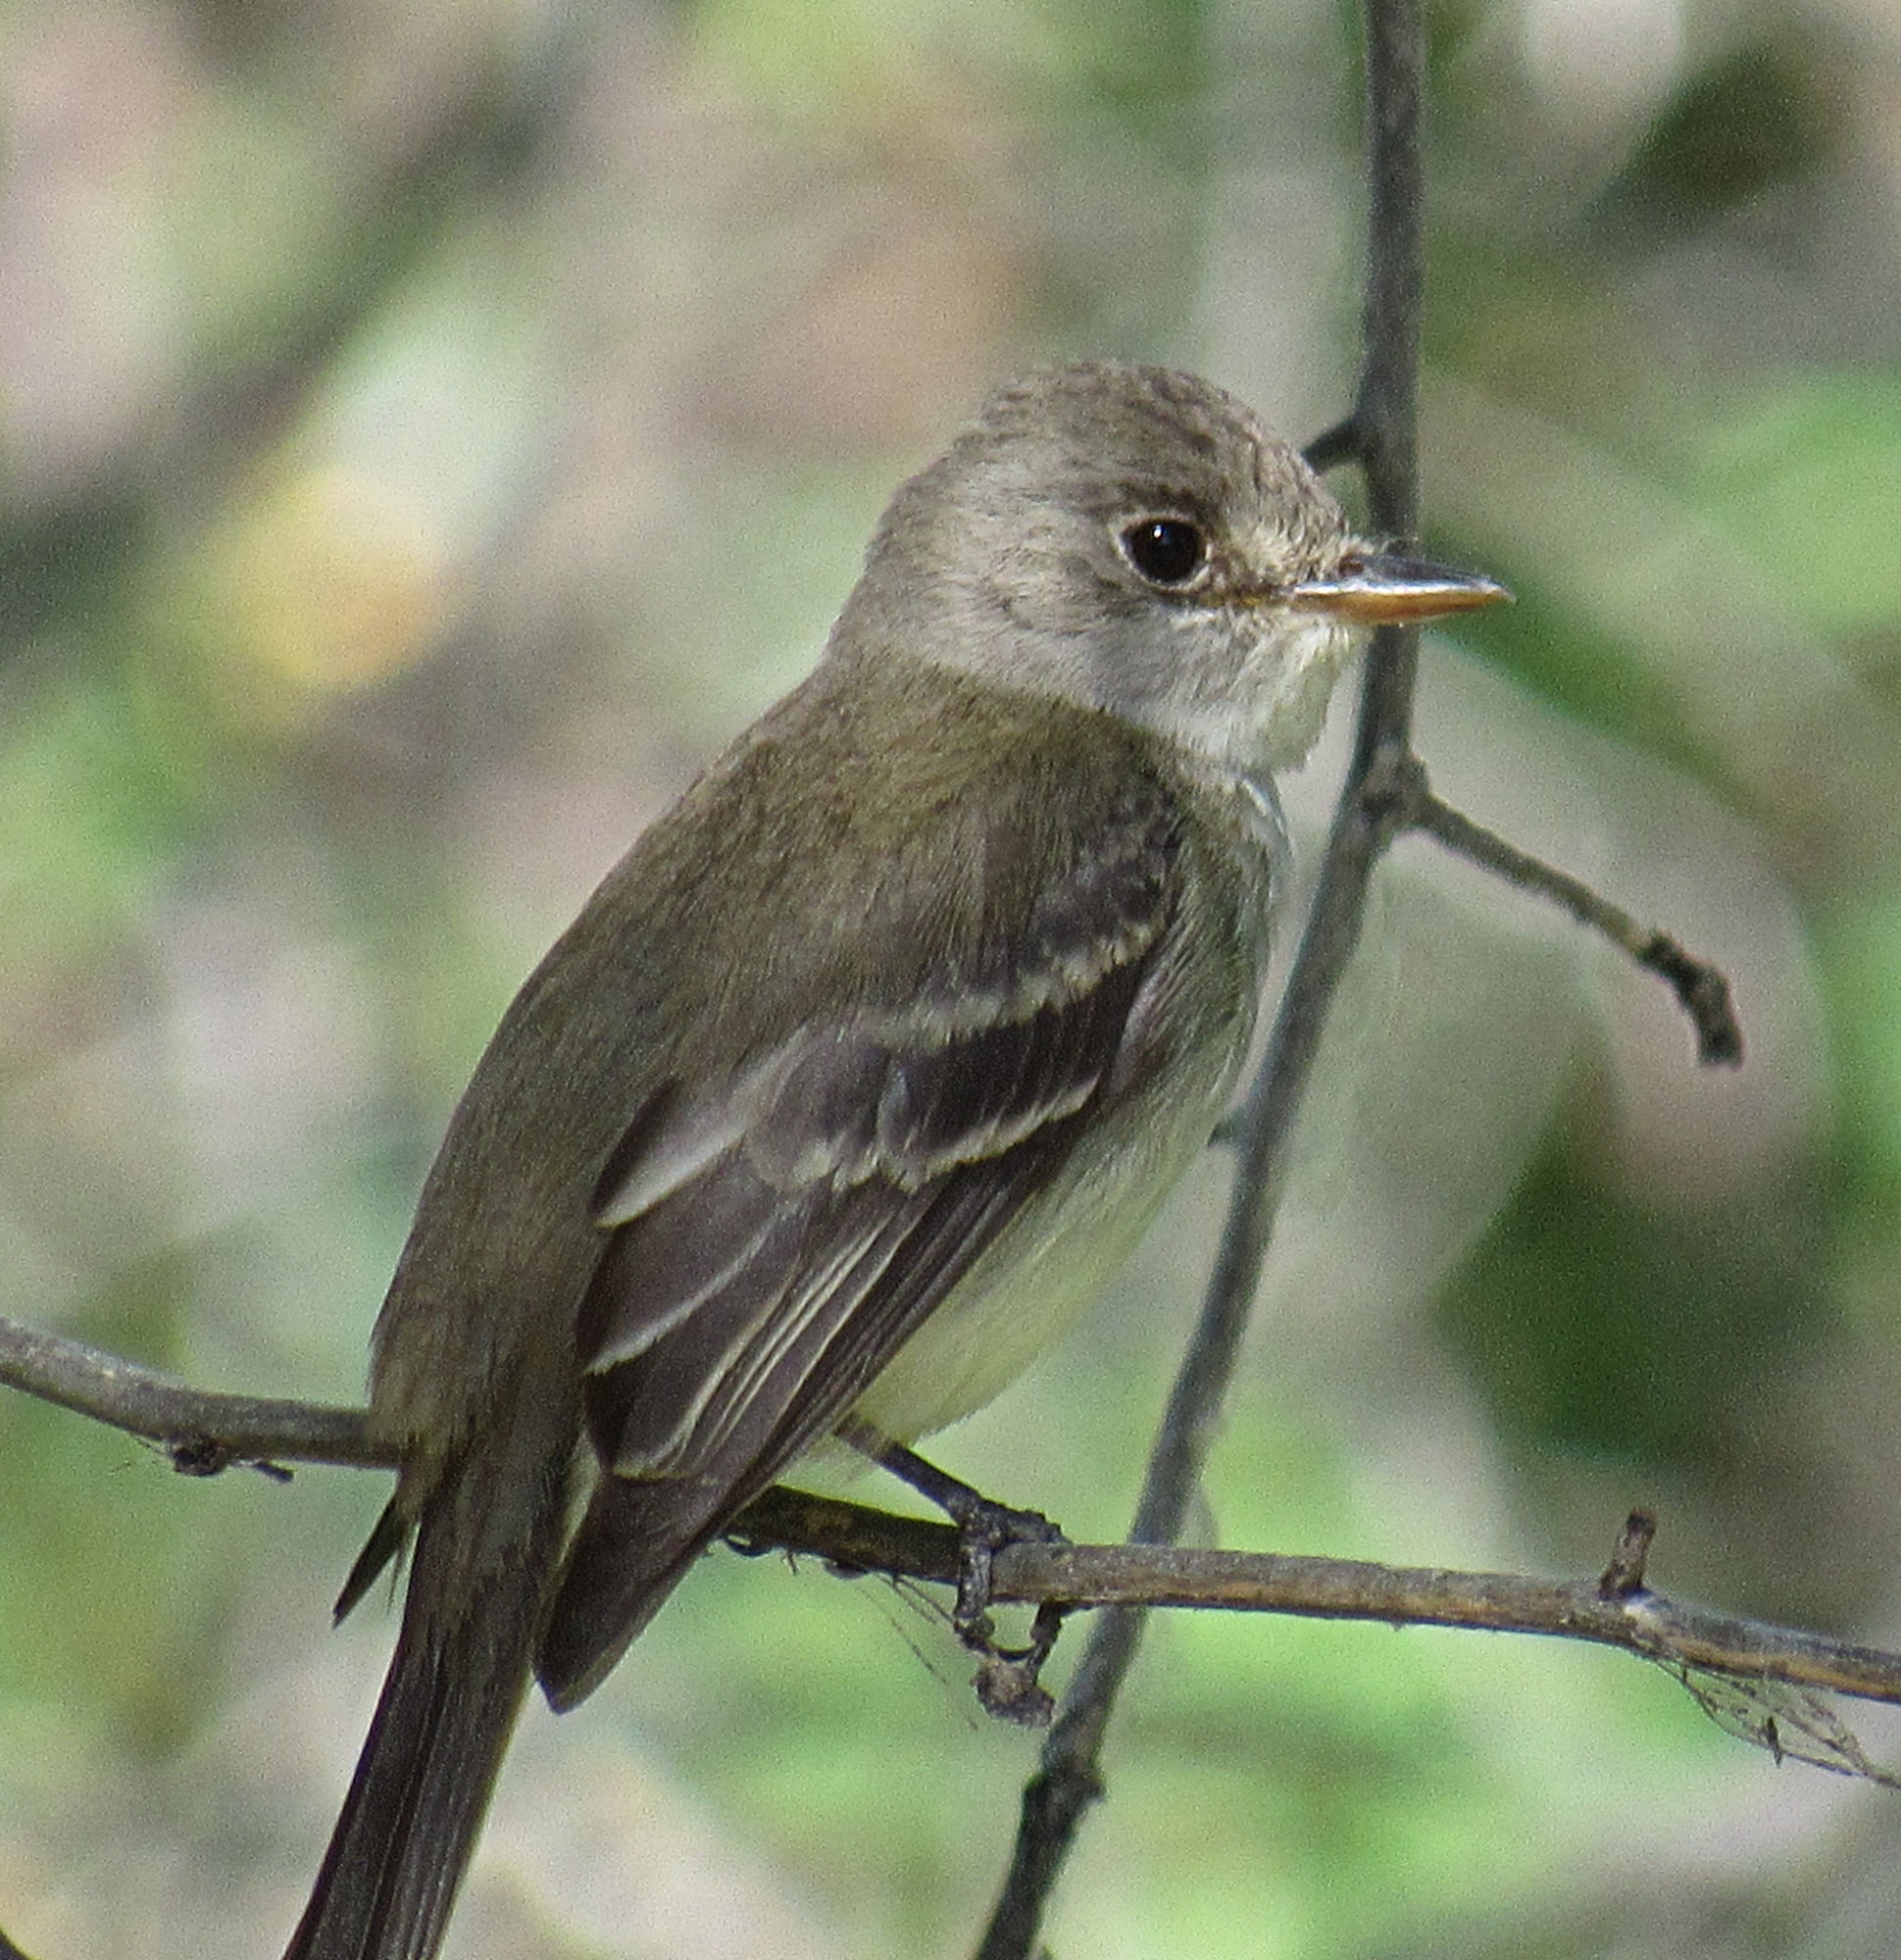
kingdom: Animalia
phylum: Chordata
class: Aves
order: Passeriformes
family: Tyrannidae
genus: Empidonax
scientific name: Empidonax traillii
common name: Willow flycatcher
